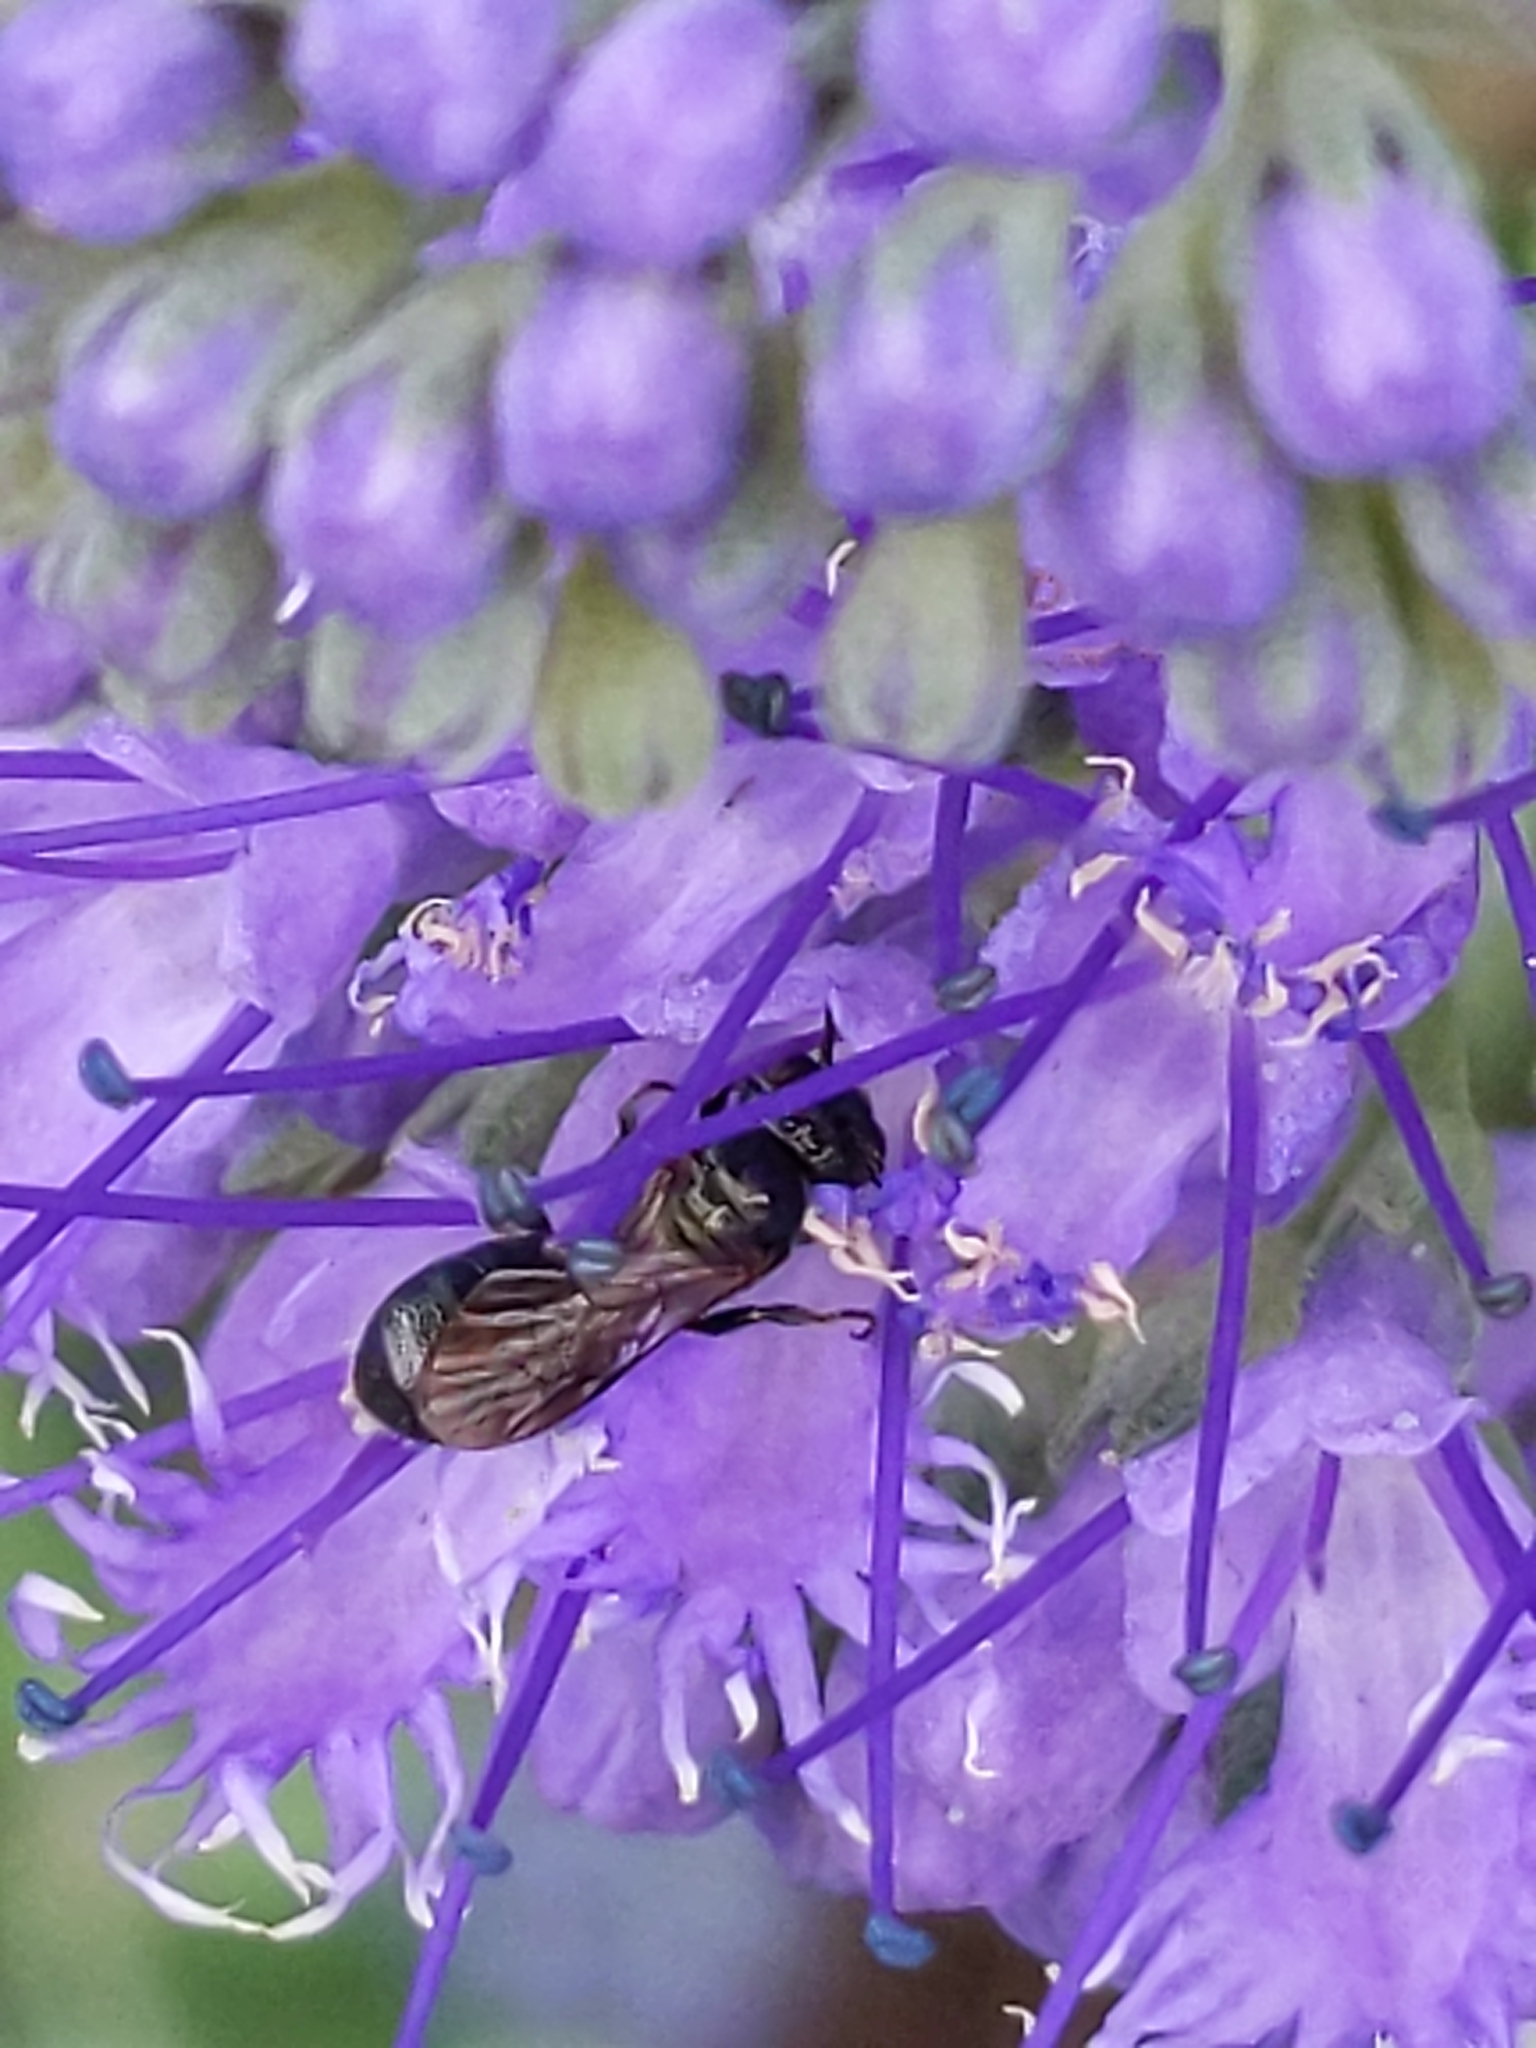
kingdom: Animalia
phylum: Arthropoda
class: Insecta
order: Hymenoptera
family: Apidae
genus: Zadontomerus
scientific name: Zadontomerus
